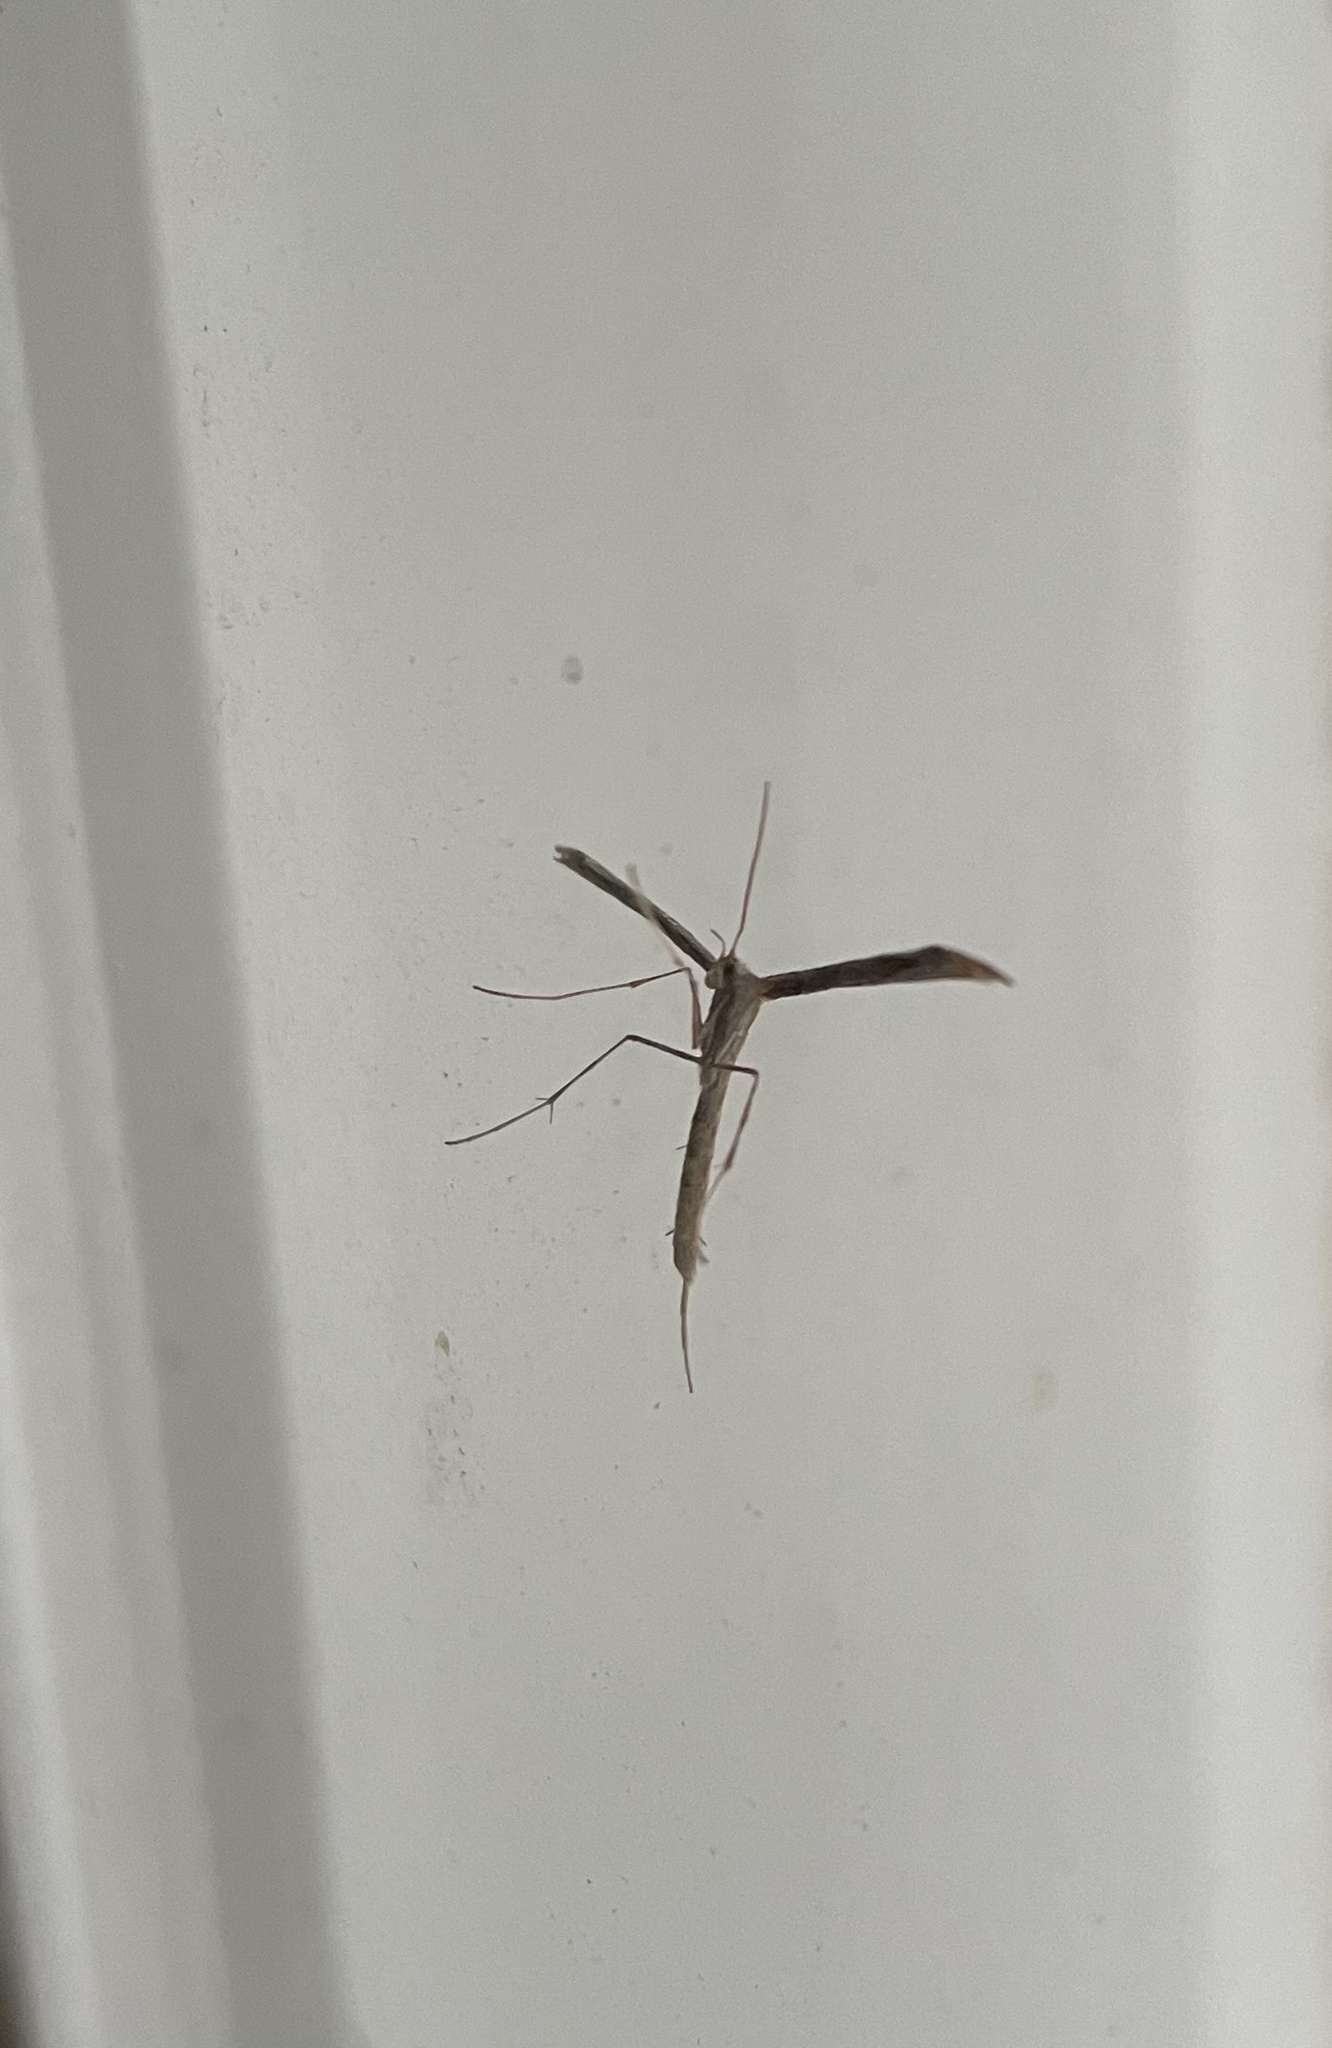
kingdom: Animalia
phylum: Arthropoda
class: Insecta
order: Lepidoptera
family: Pterophoridae
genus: Emmelina
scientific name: Emmelina monodactyla
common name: Common plume
